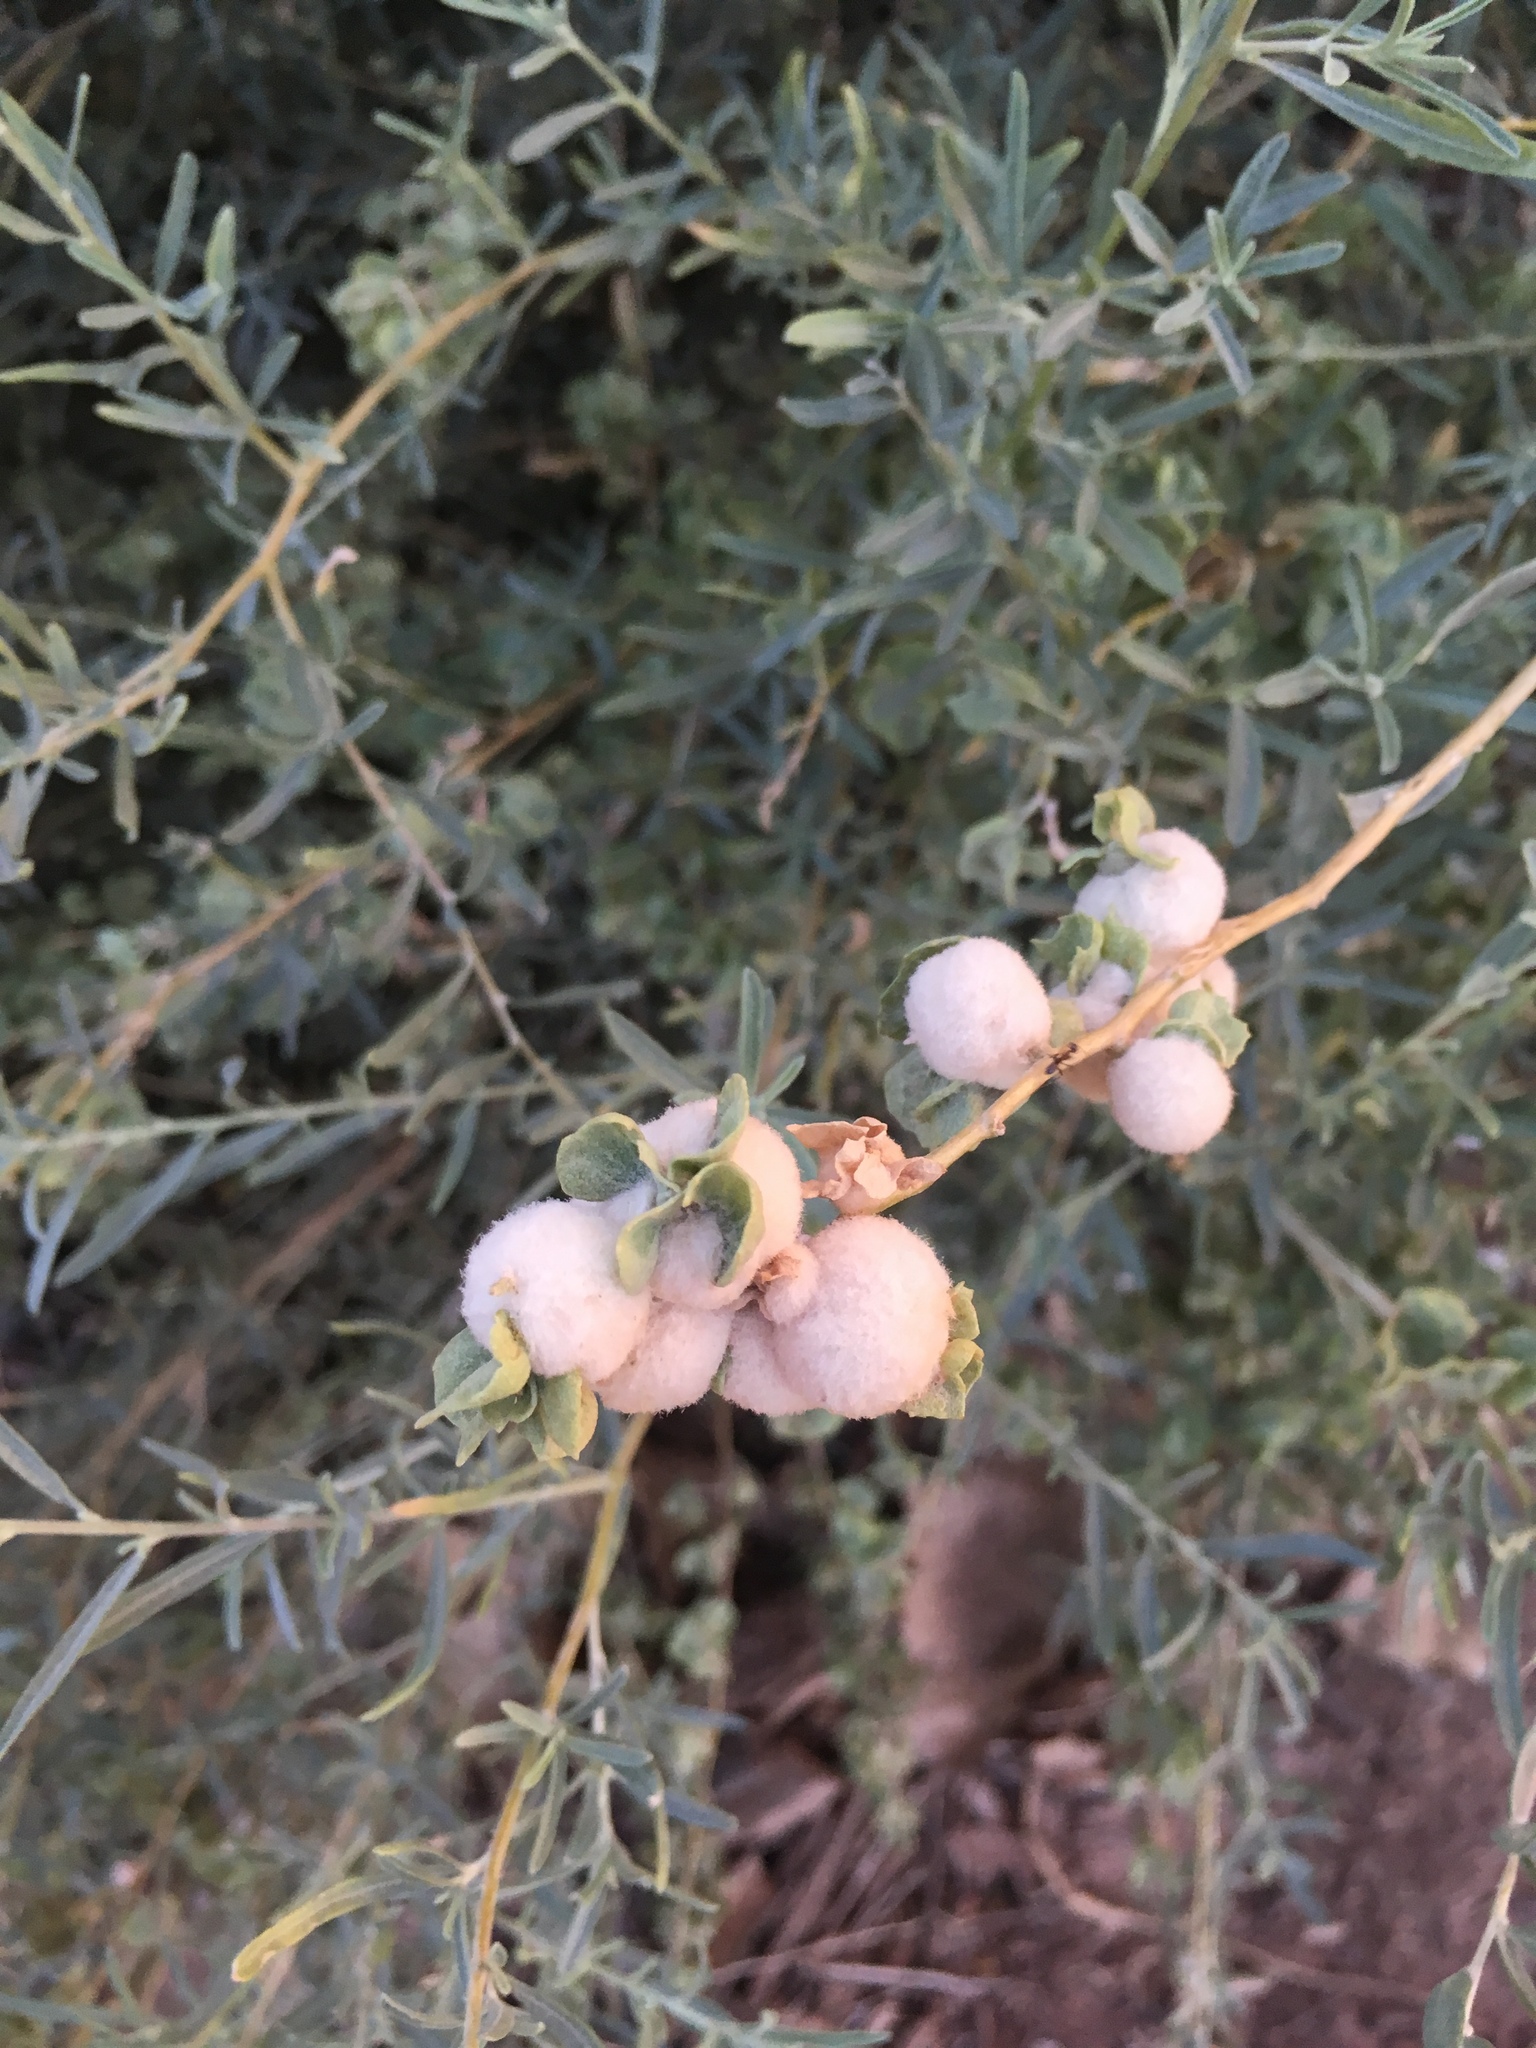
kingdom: Plantae
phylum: Tracheophyta
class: Magnoliopsida
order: Caryophyllales
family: Amaranthaceae
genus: Atriplex
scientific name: Atriplex canescens
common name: Four-wing saltbush
